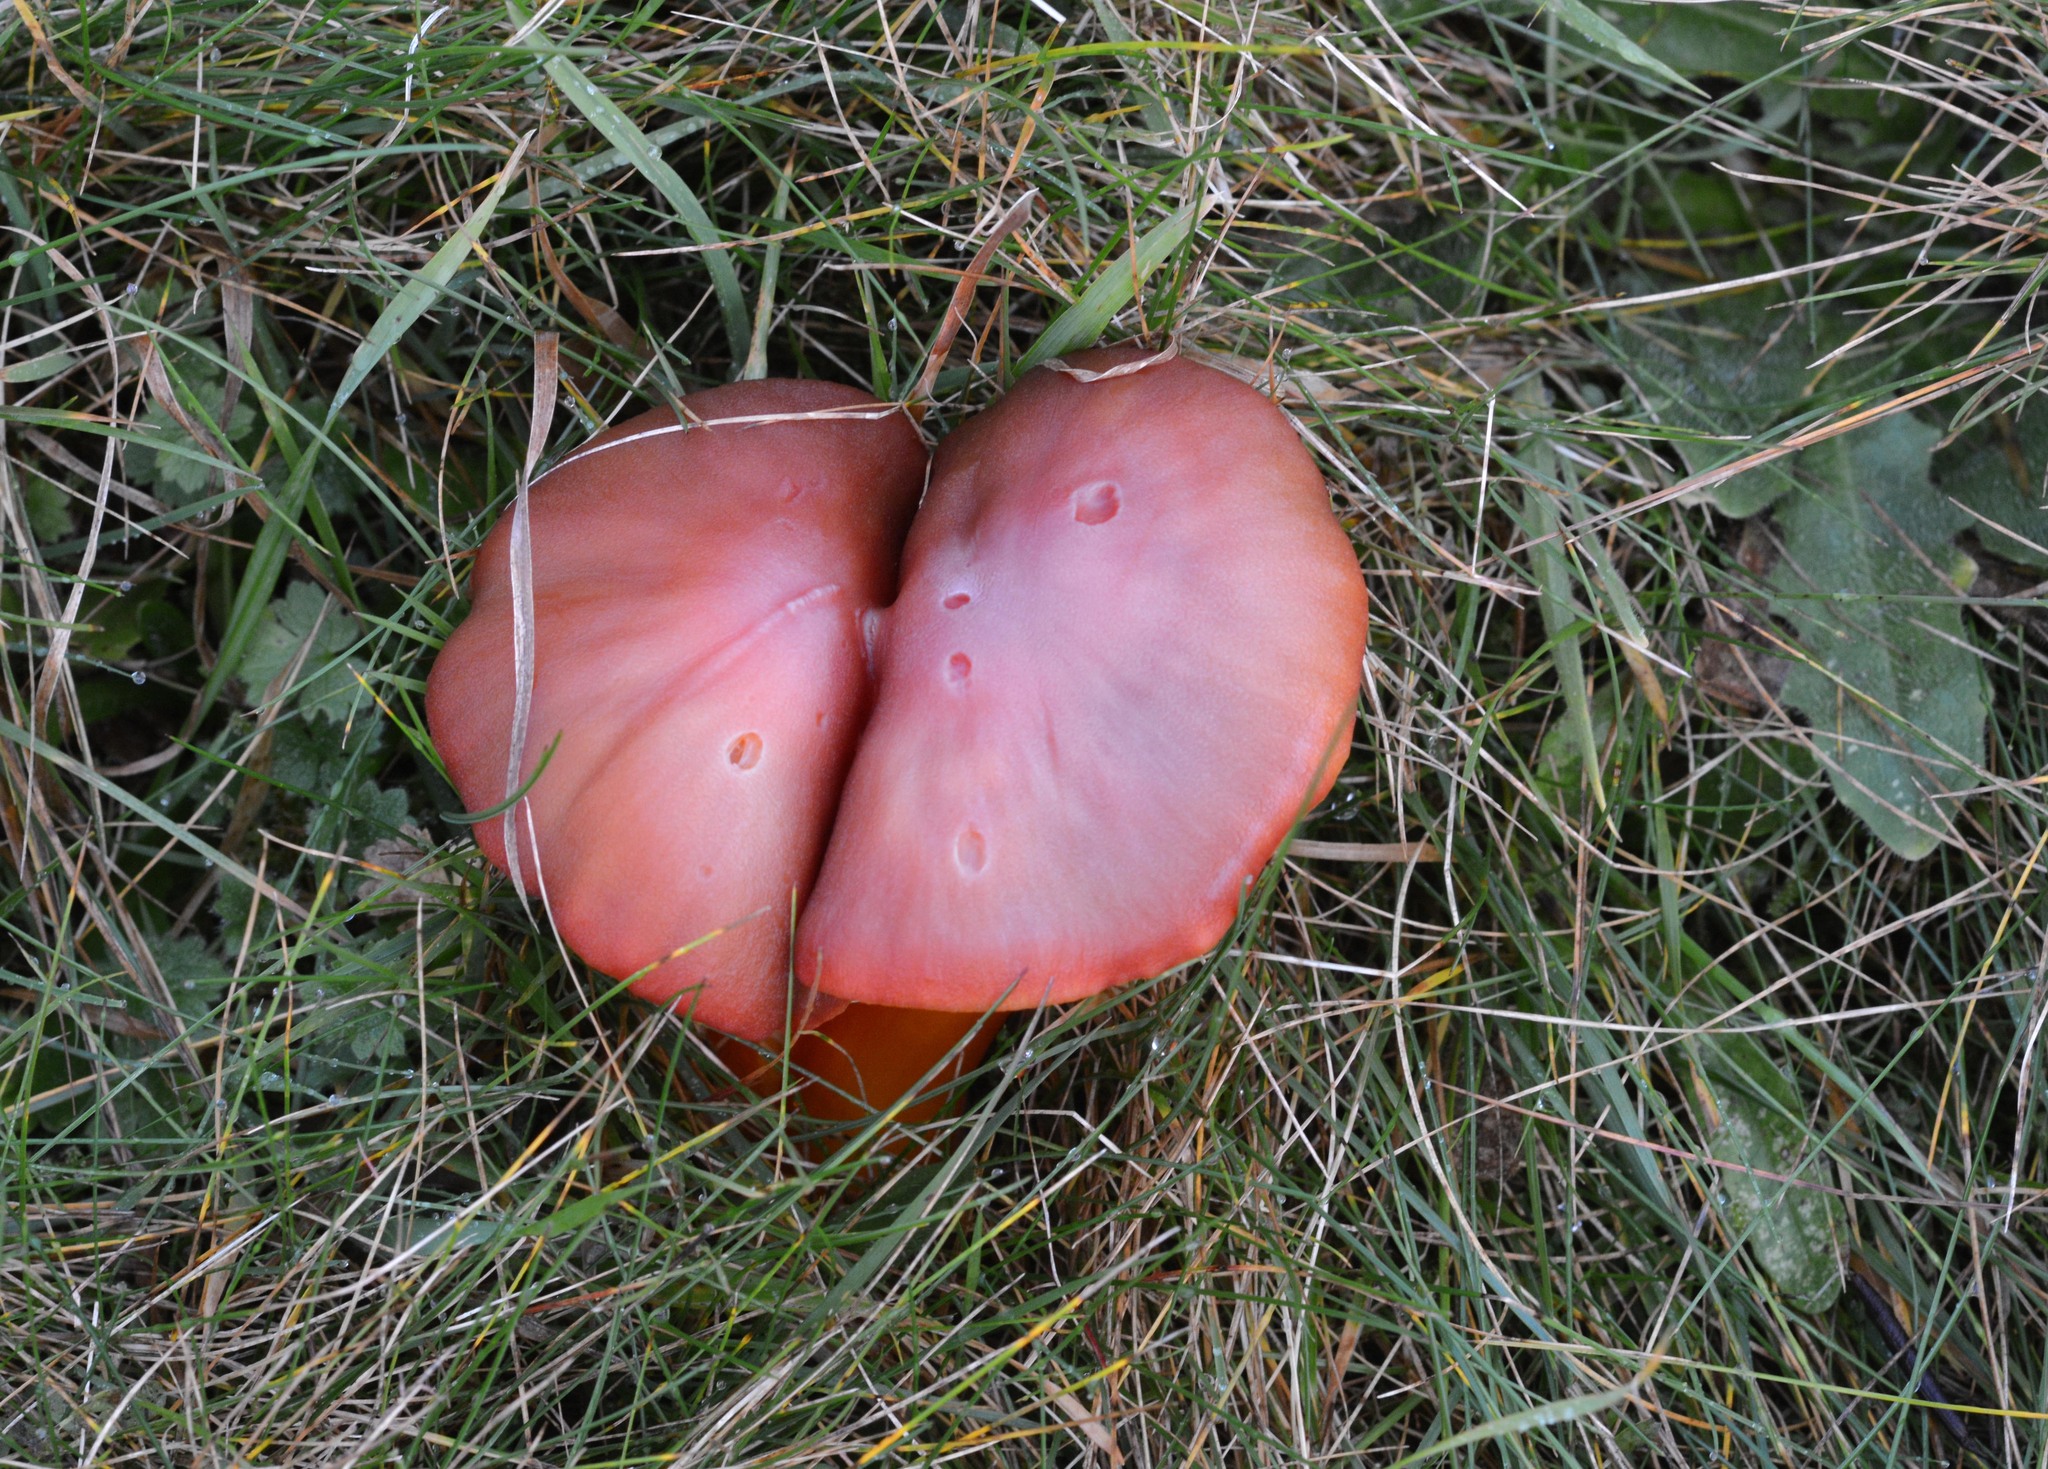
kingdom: Fungi
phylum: Basidiomycota
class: Agaricomycetes
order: Agaricales
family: Hygrophoraceae
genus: Hygrocybe
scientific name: Hygrocybe punicea
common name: Crimson waxcap
